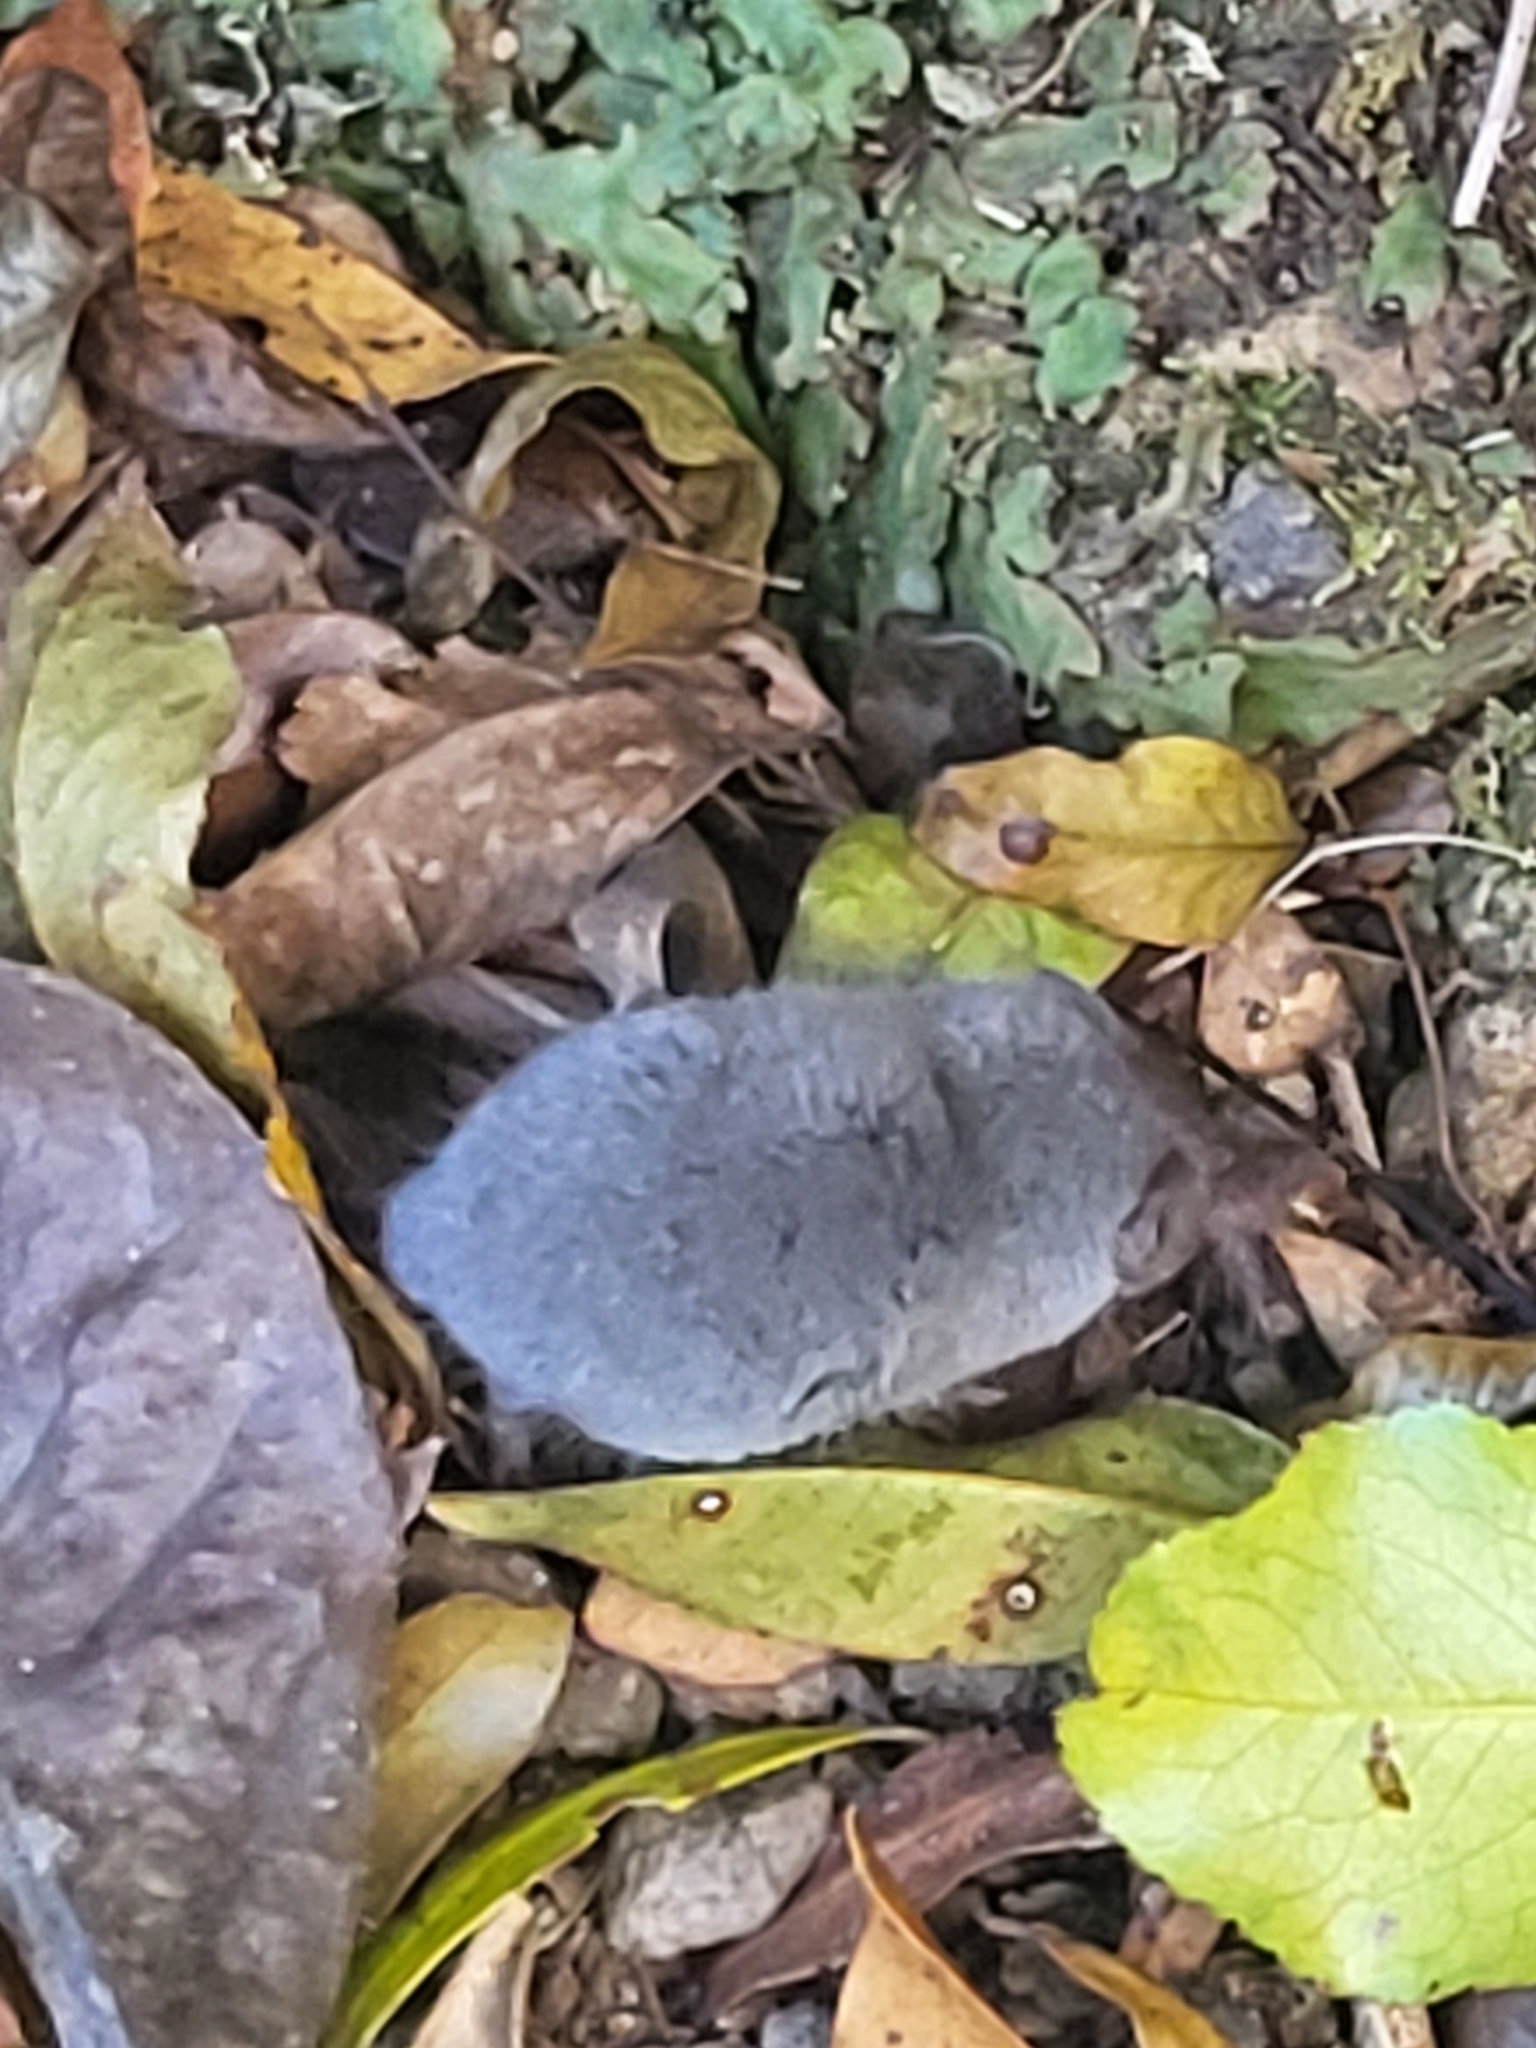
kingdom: Animalia
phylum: Chordata
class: Mammalia
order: Soricomorpha
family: Soricidae
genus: Suncus
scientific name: Suncus murinus
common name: Asian house shrew
